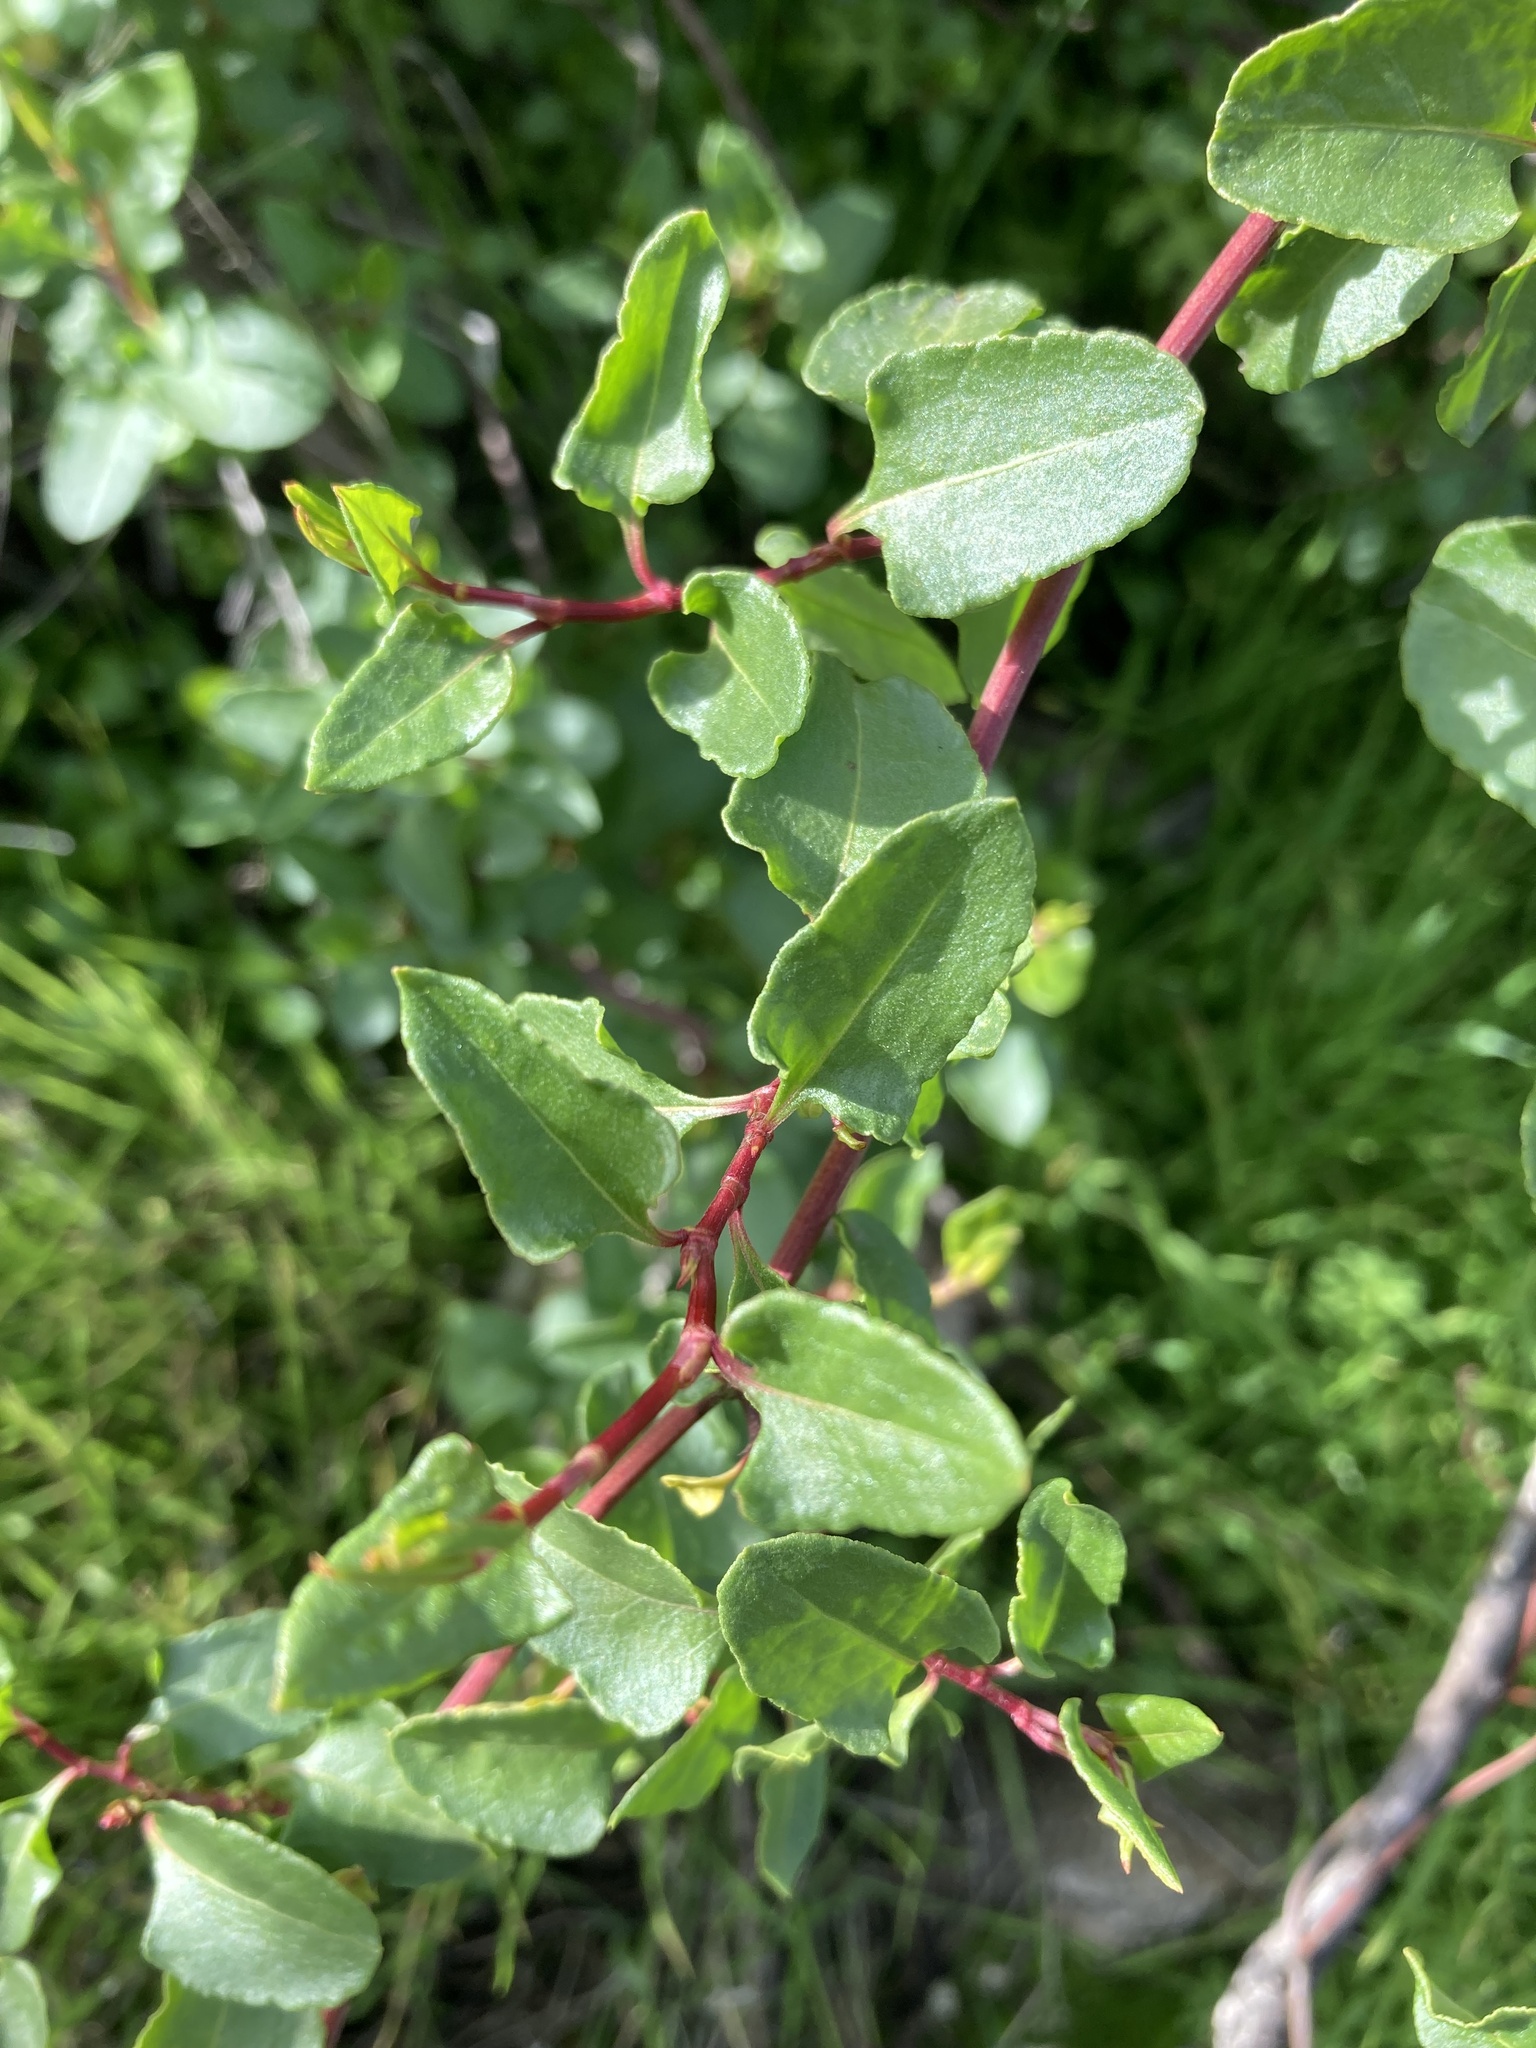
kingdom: Plantae
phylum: Tracheophyta
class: Magnoliopsida
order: Caryophyllales
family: Polygonaceae
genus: Muehlenbeckia
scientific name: Muehlenbeckia hastulata
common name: Wirevine
